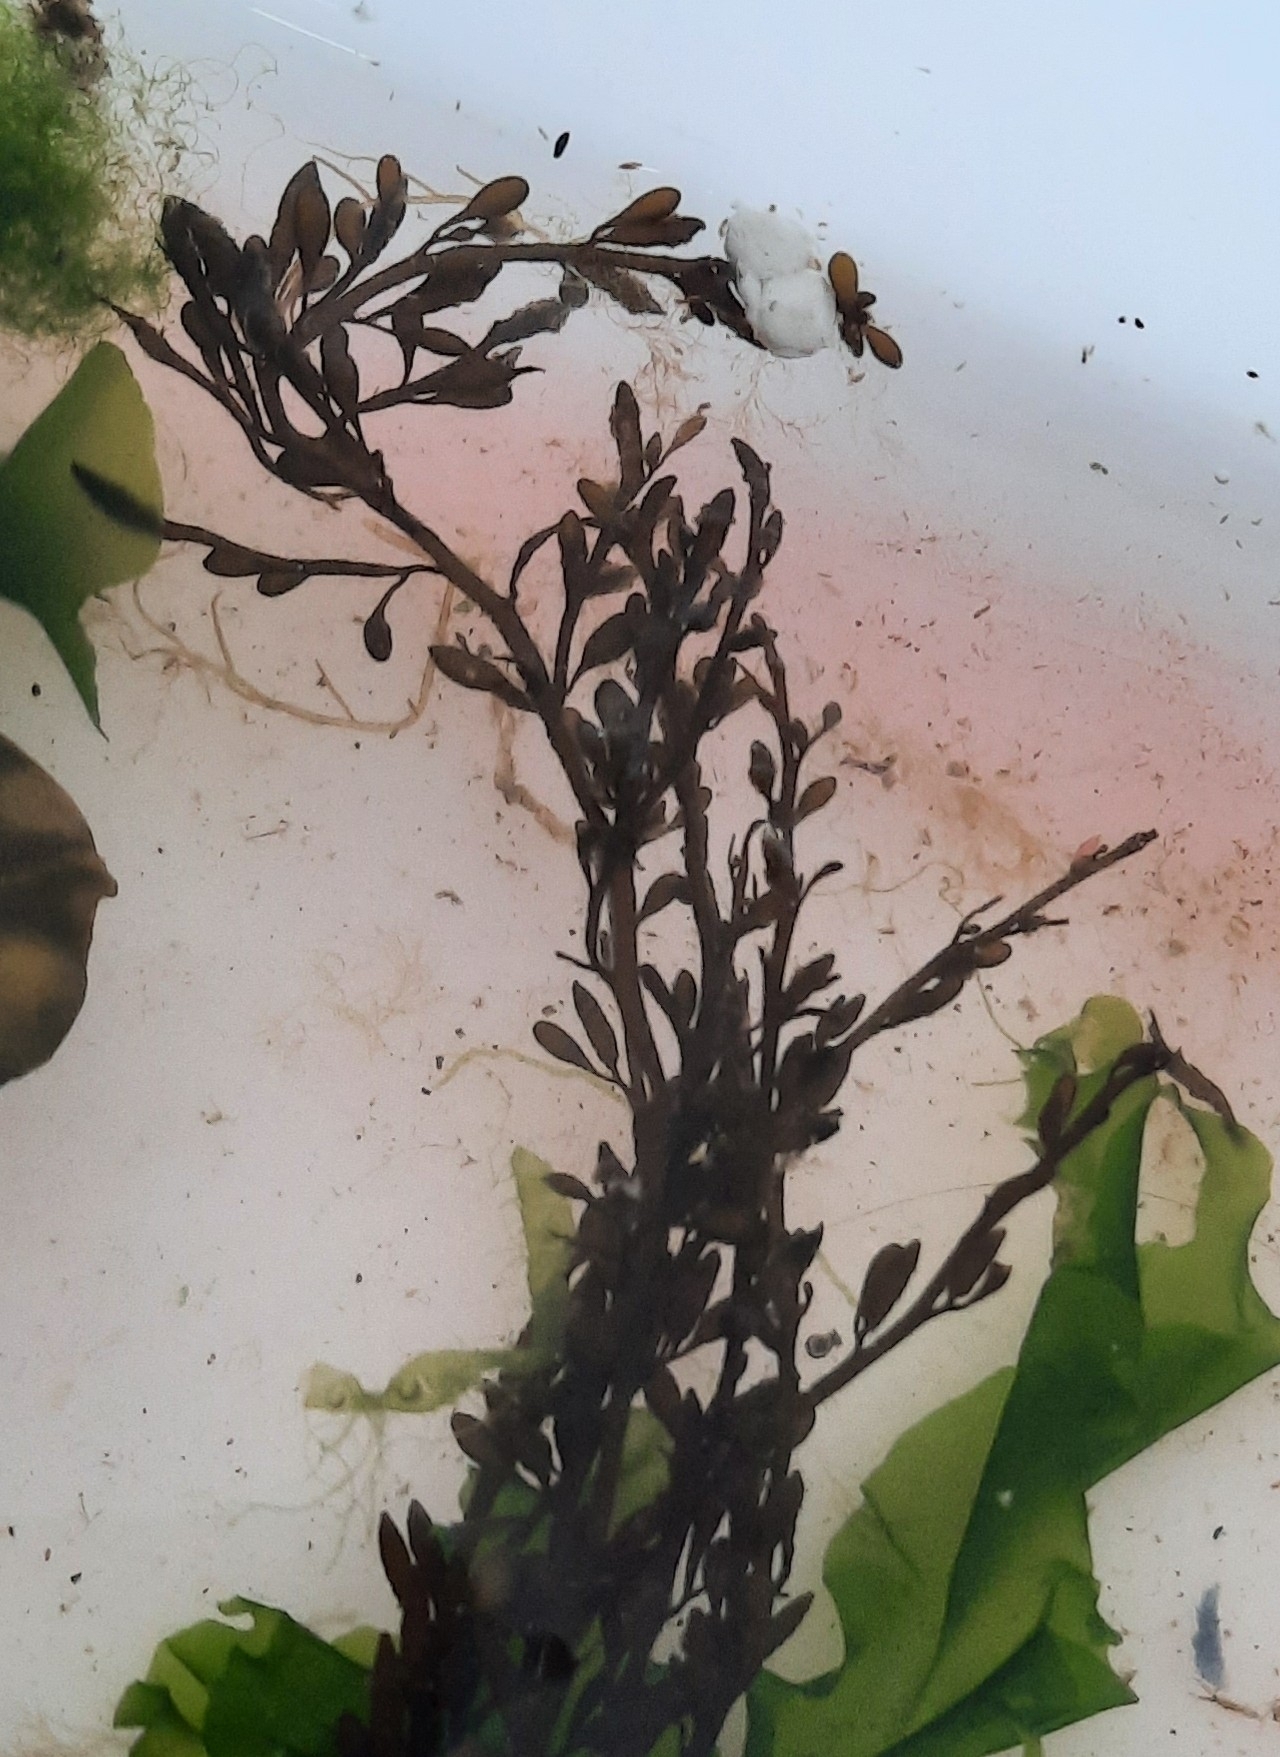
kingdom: Chromista
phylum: Ochrophyta
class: Phaeophyceae
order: Fucales
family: Sargassaceae
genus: Sargassum
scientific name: Sargassum muticum
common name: Japweed
